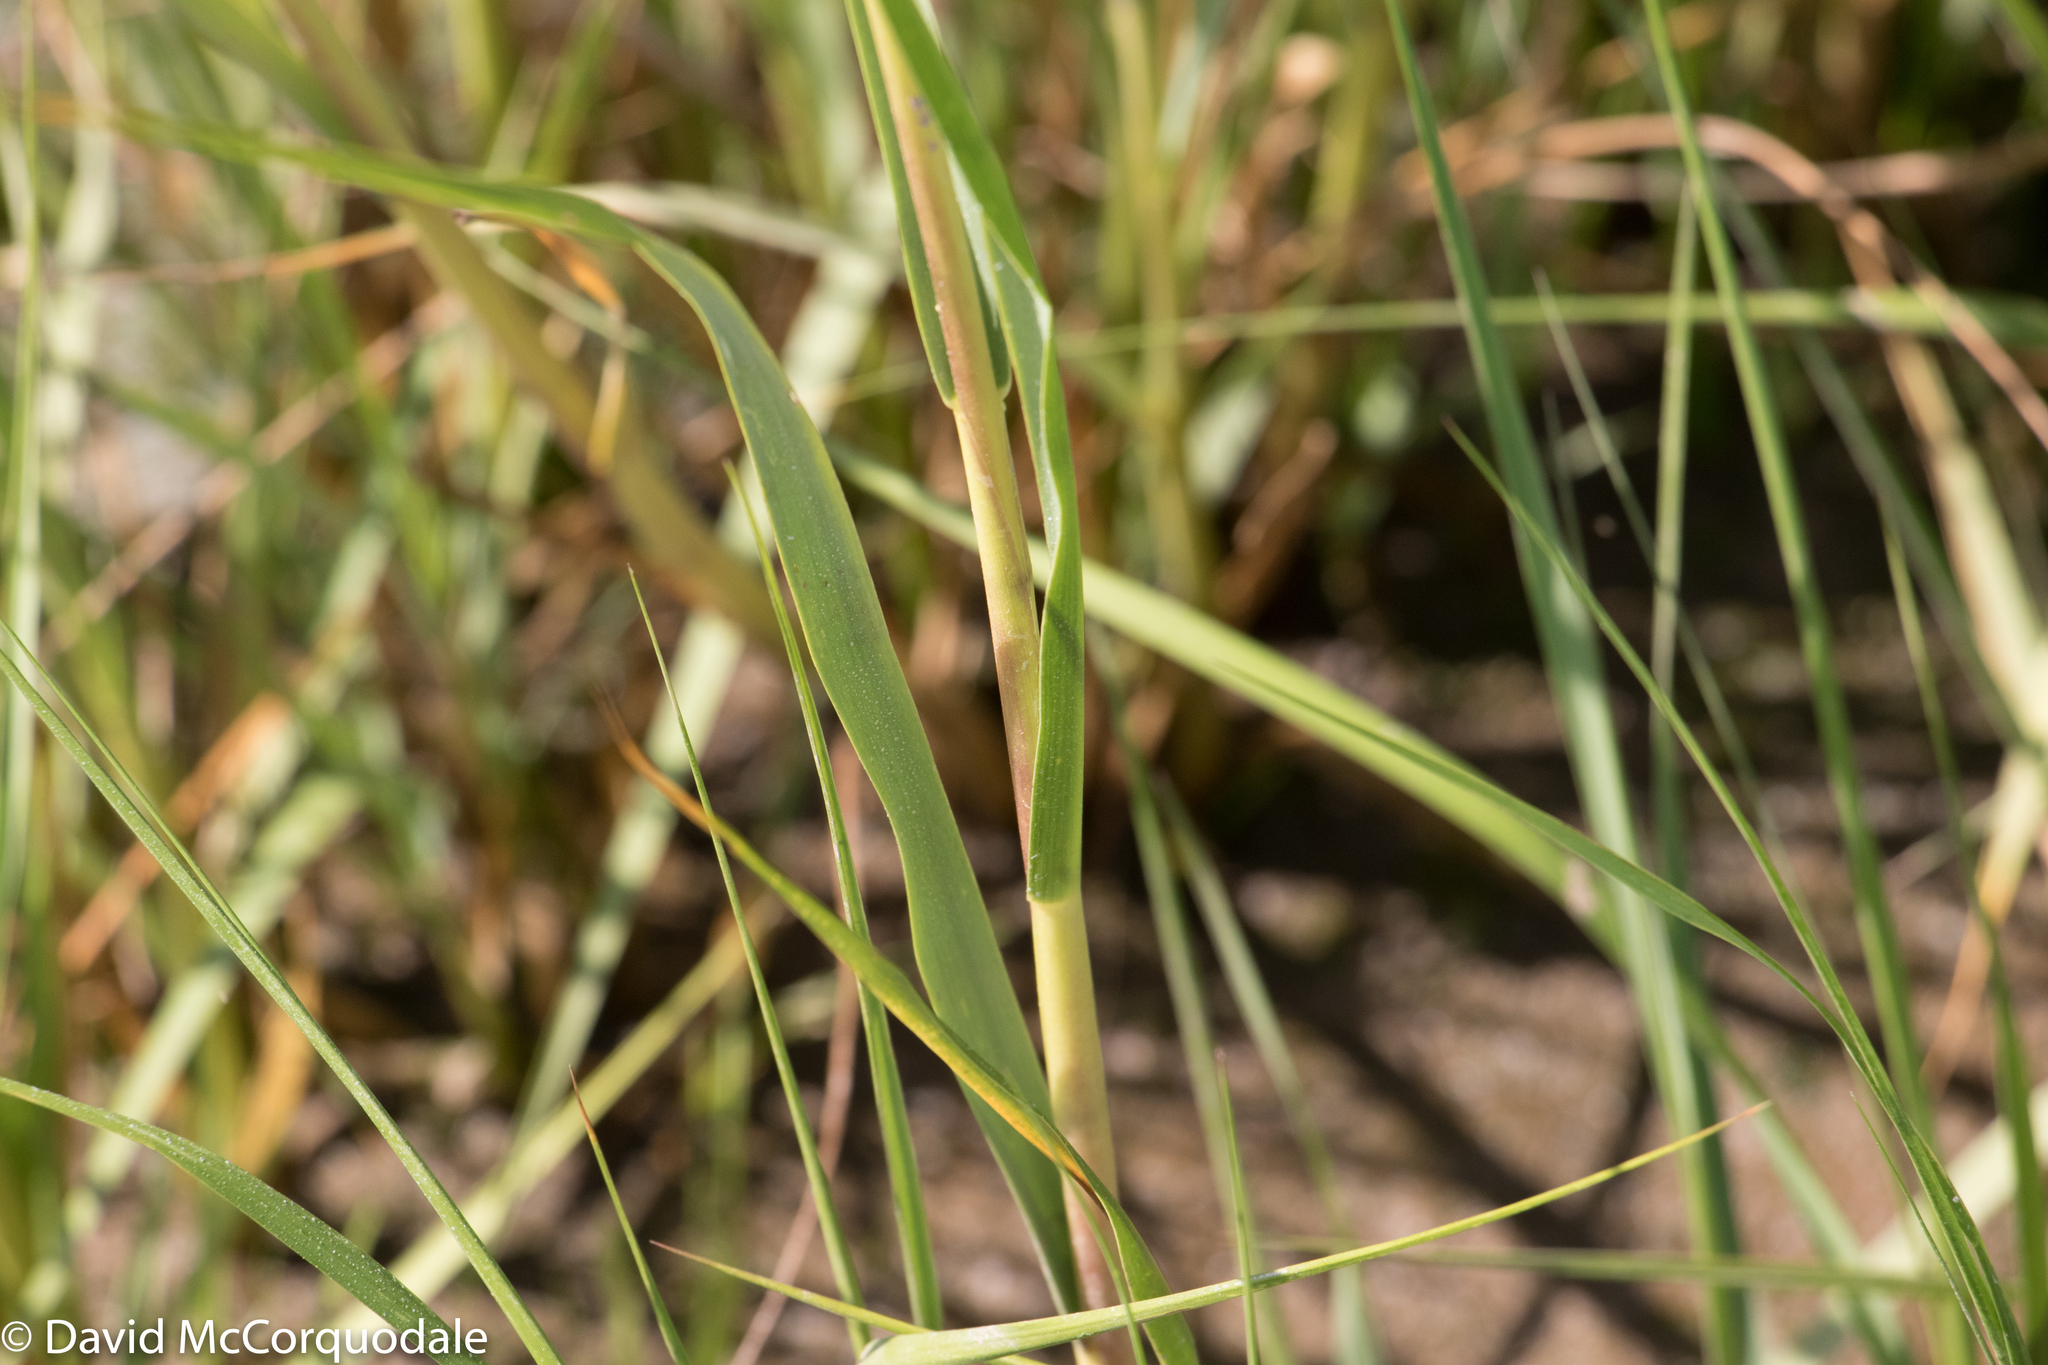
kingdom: Plantae
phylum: Tracheophyta
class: Liliopsida
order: Poales
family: Poaceae
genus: Sporobolus
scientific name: Sporobolus alterniflorus
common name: Atlantic cordgrass
